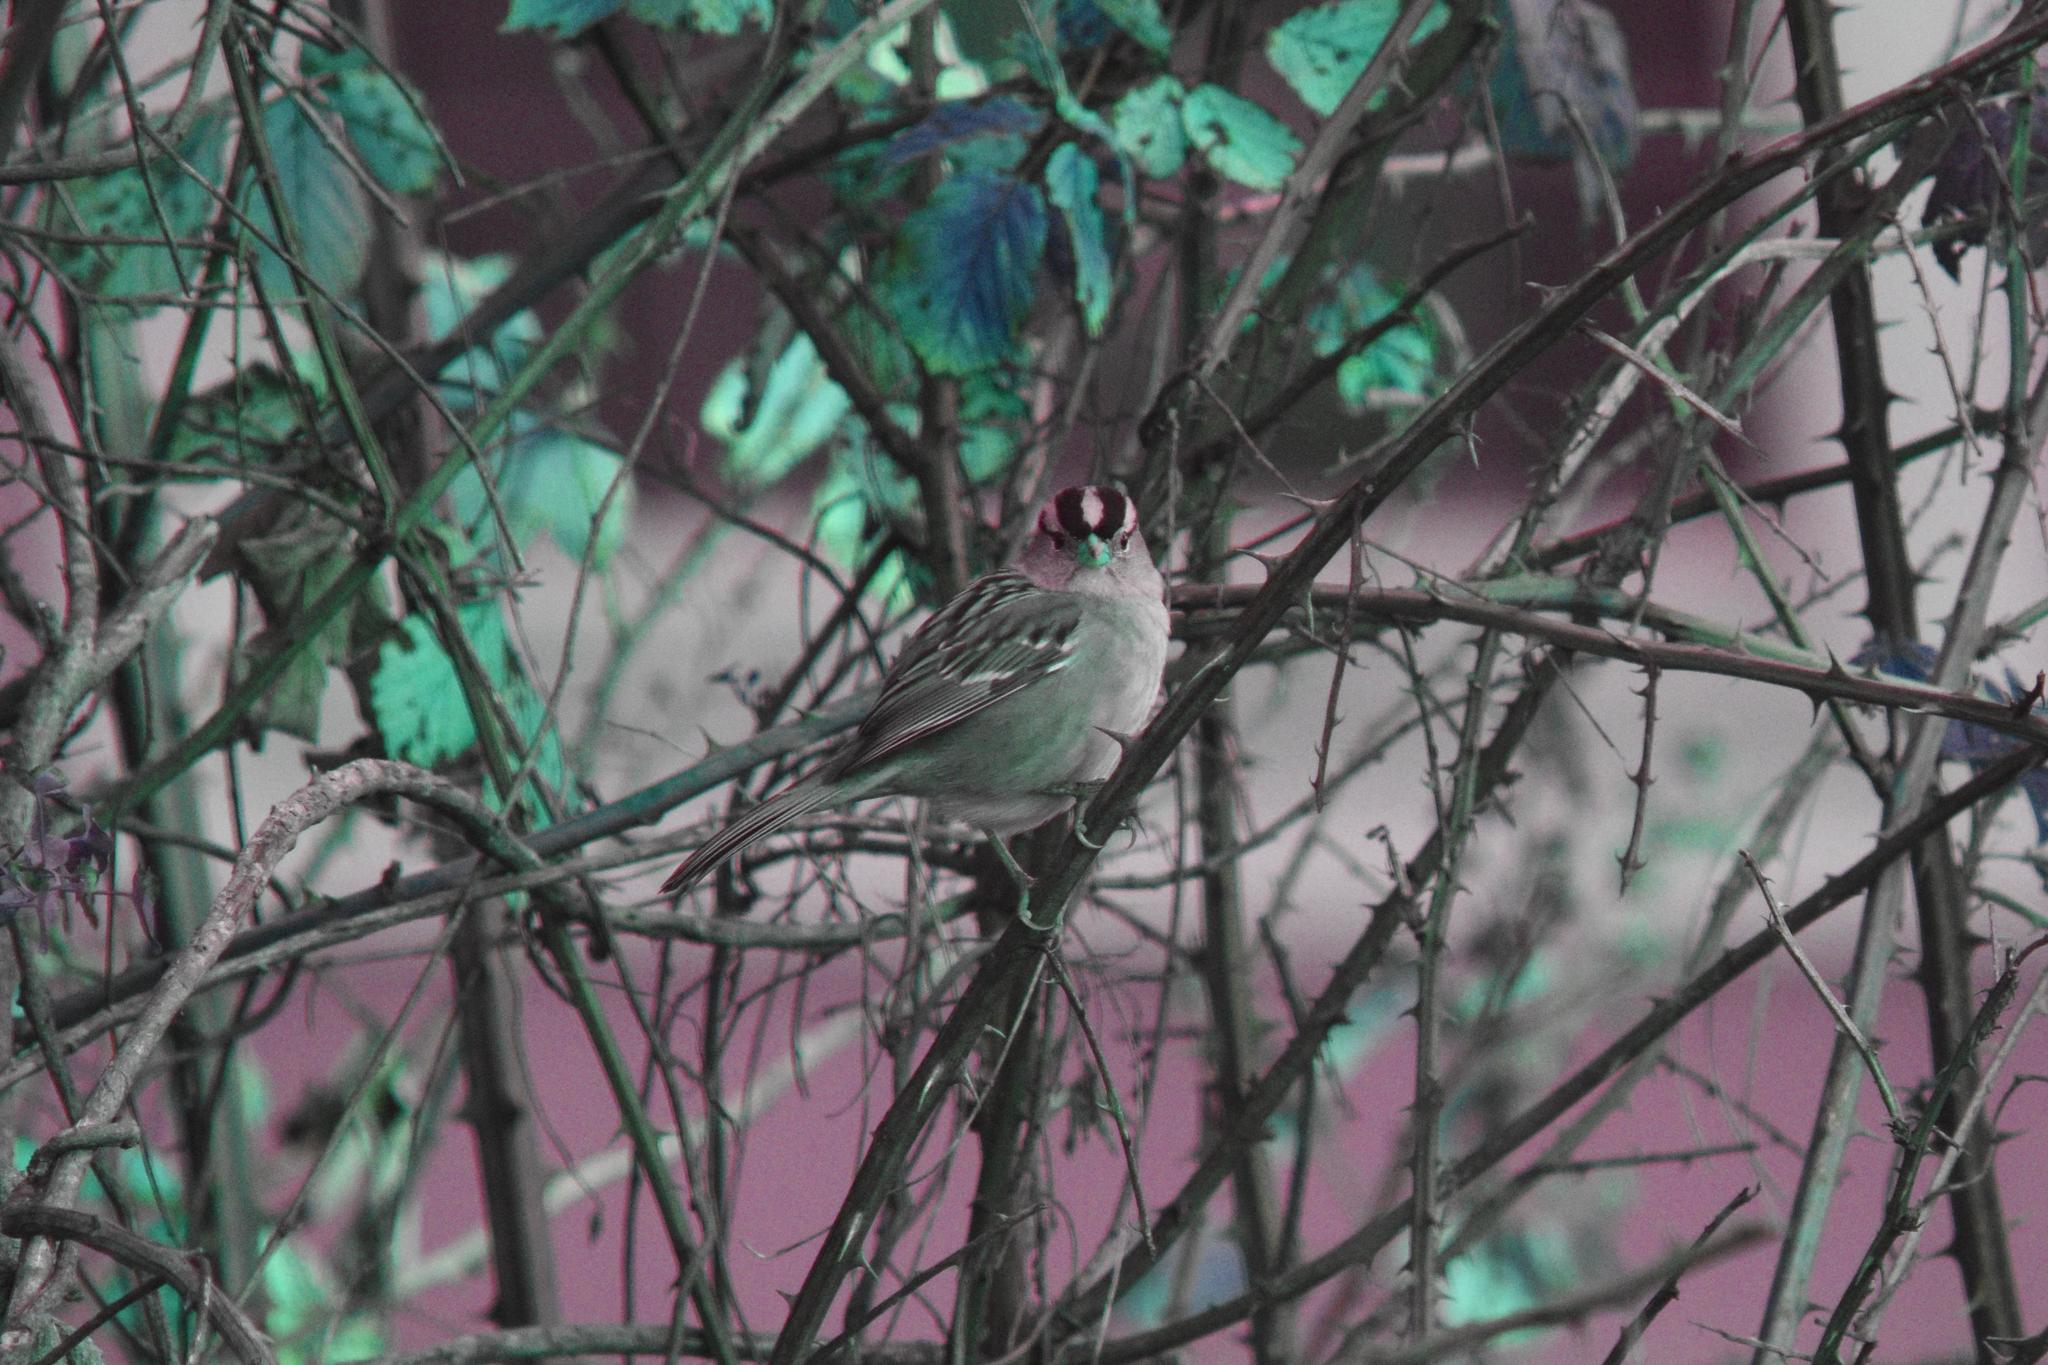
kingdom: Animalia
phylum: Chordata
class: Aves
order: Passeriformes
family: Passerellidae
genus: Zonotrichia
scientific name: Zonotrichia leucophrys
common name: White-crowned sparrow
